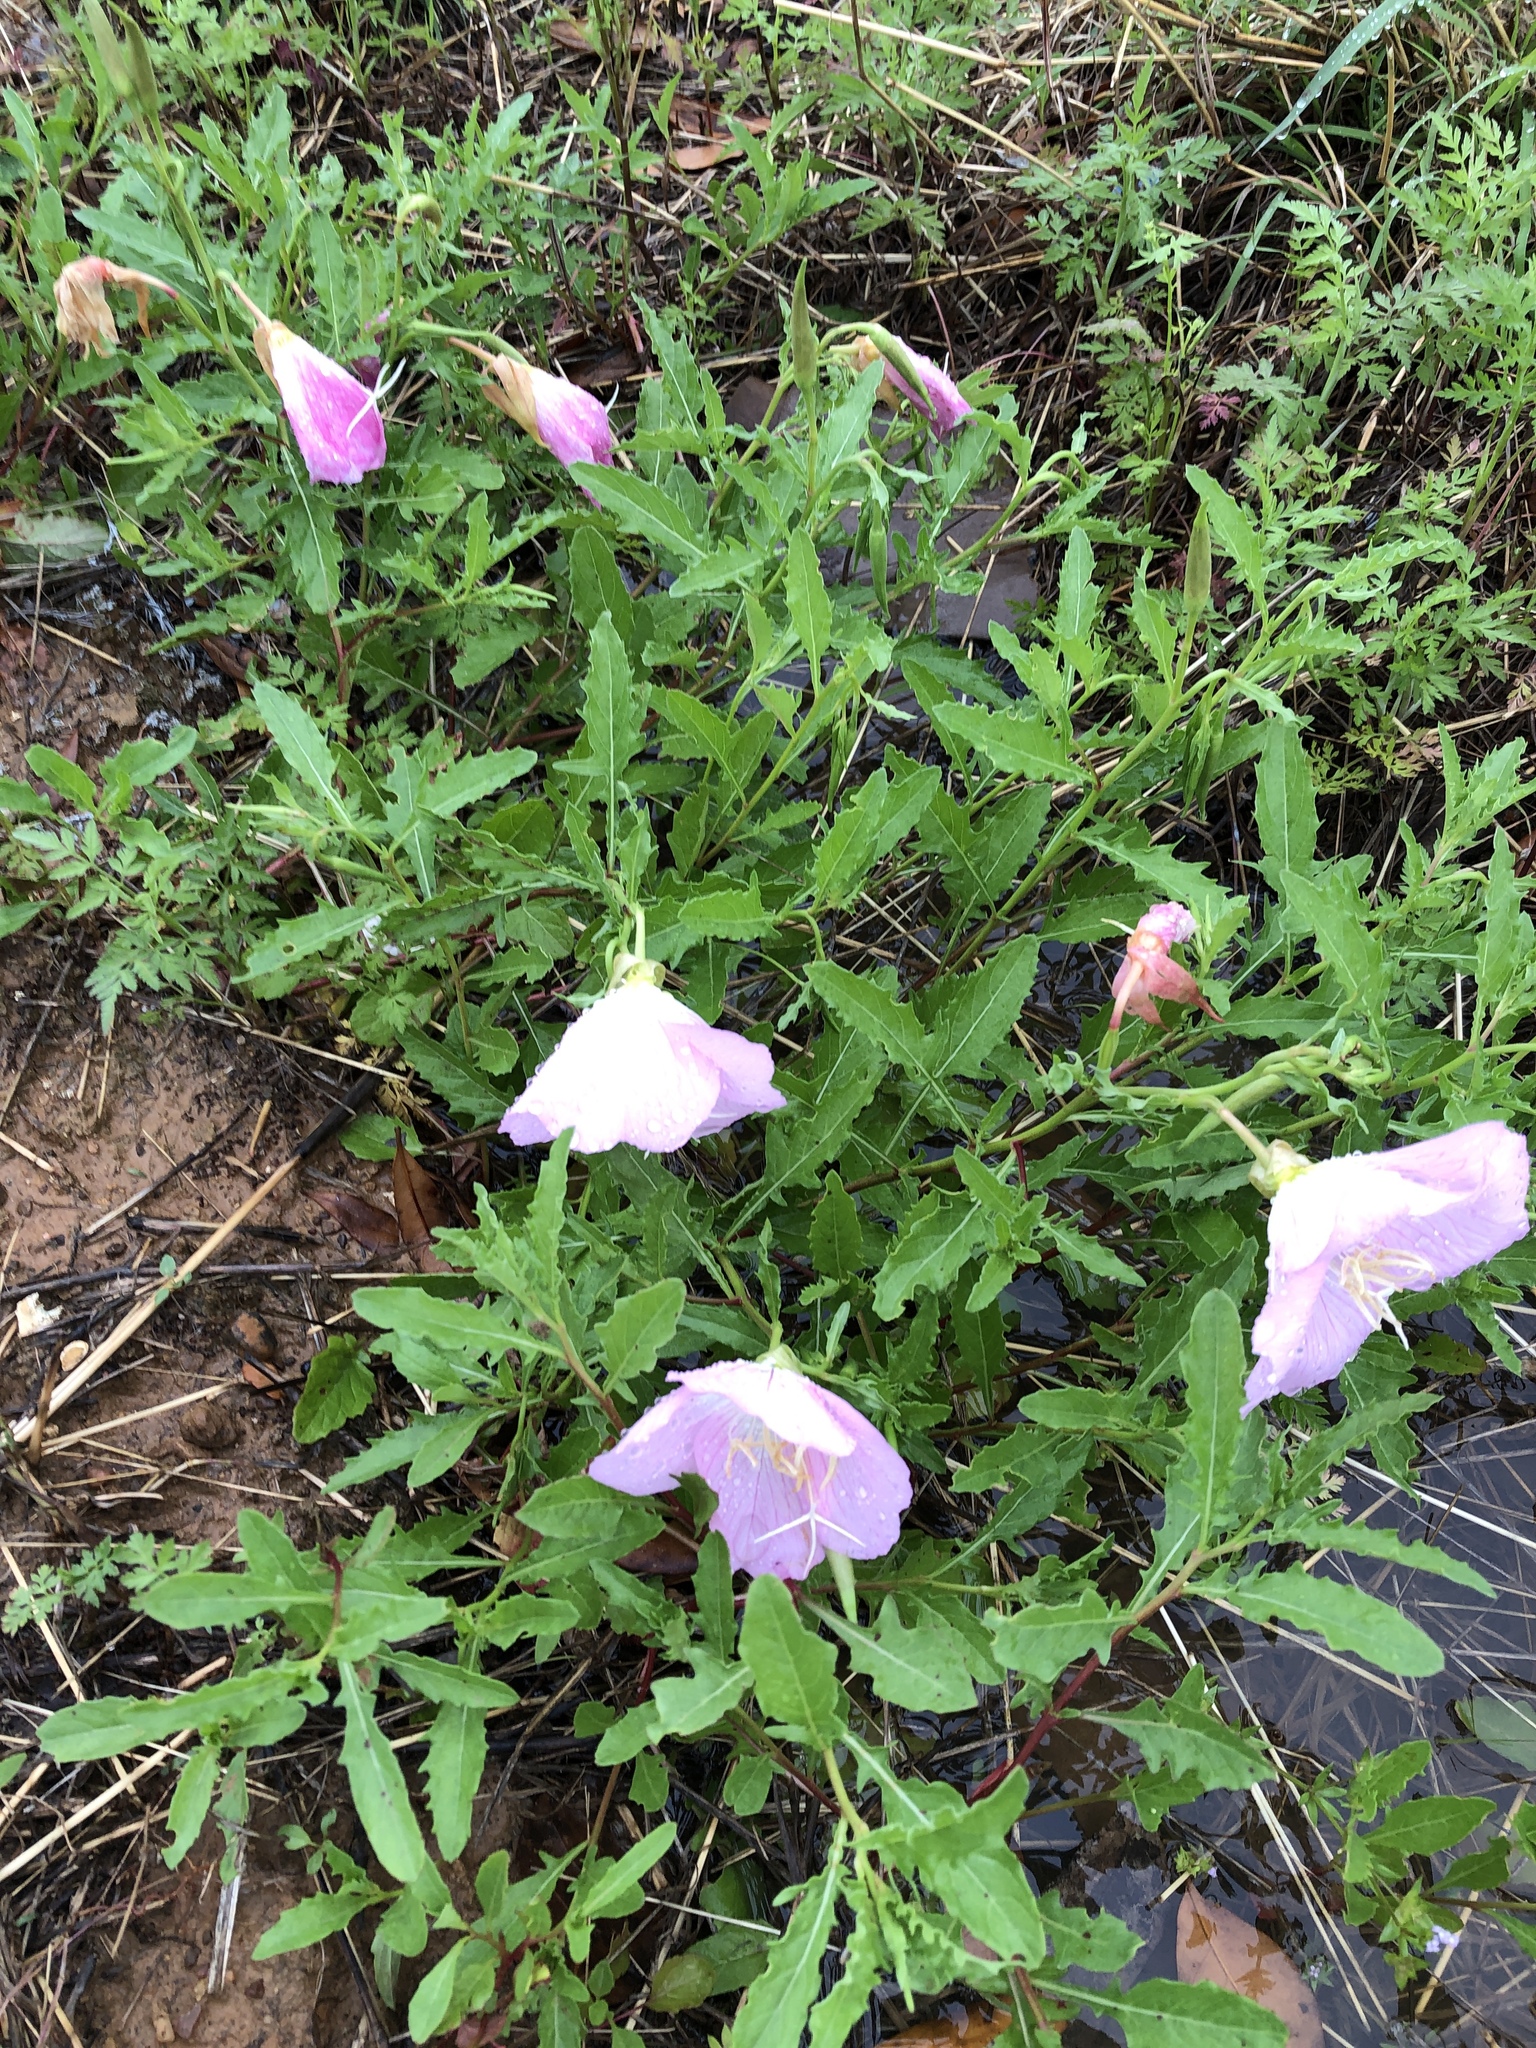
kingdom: Plantae
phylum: Tracheophyta
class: Magnoliopsida
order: Myrtales
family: Onagraceae
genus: Oenothera
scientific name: Oenothera speciosa
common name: White evening-primrose
